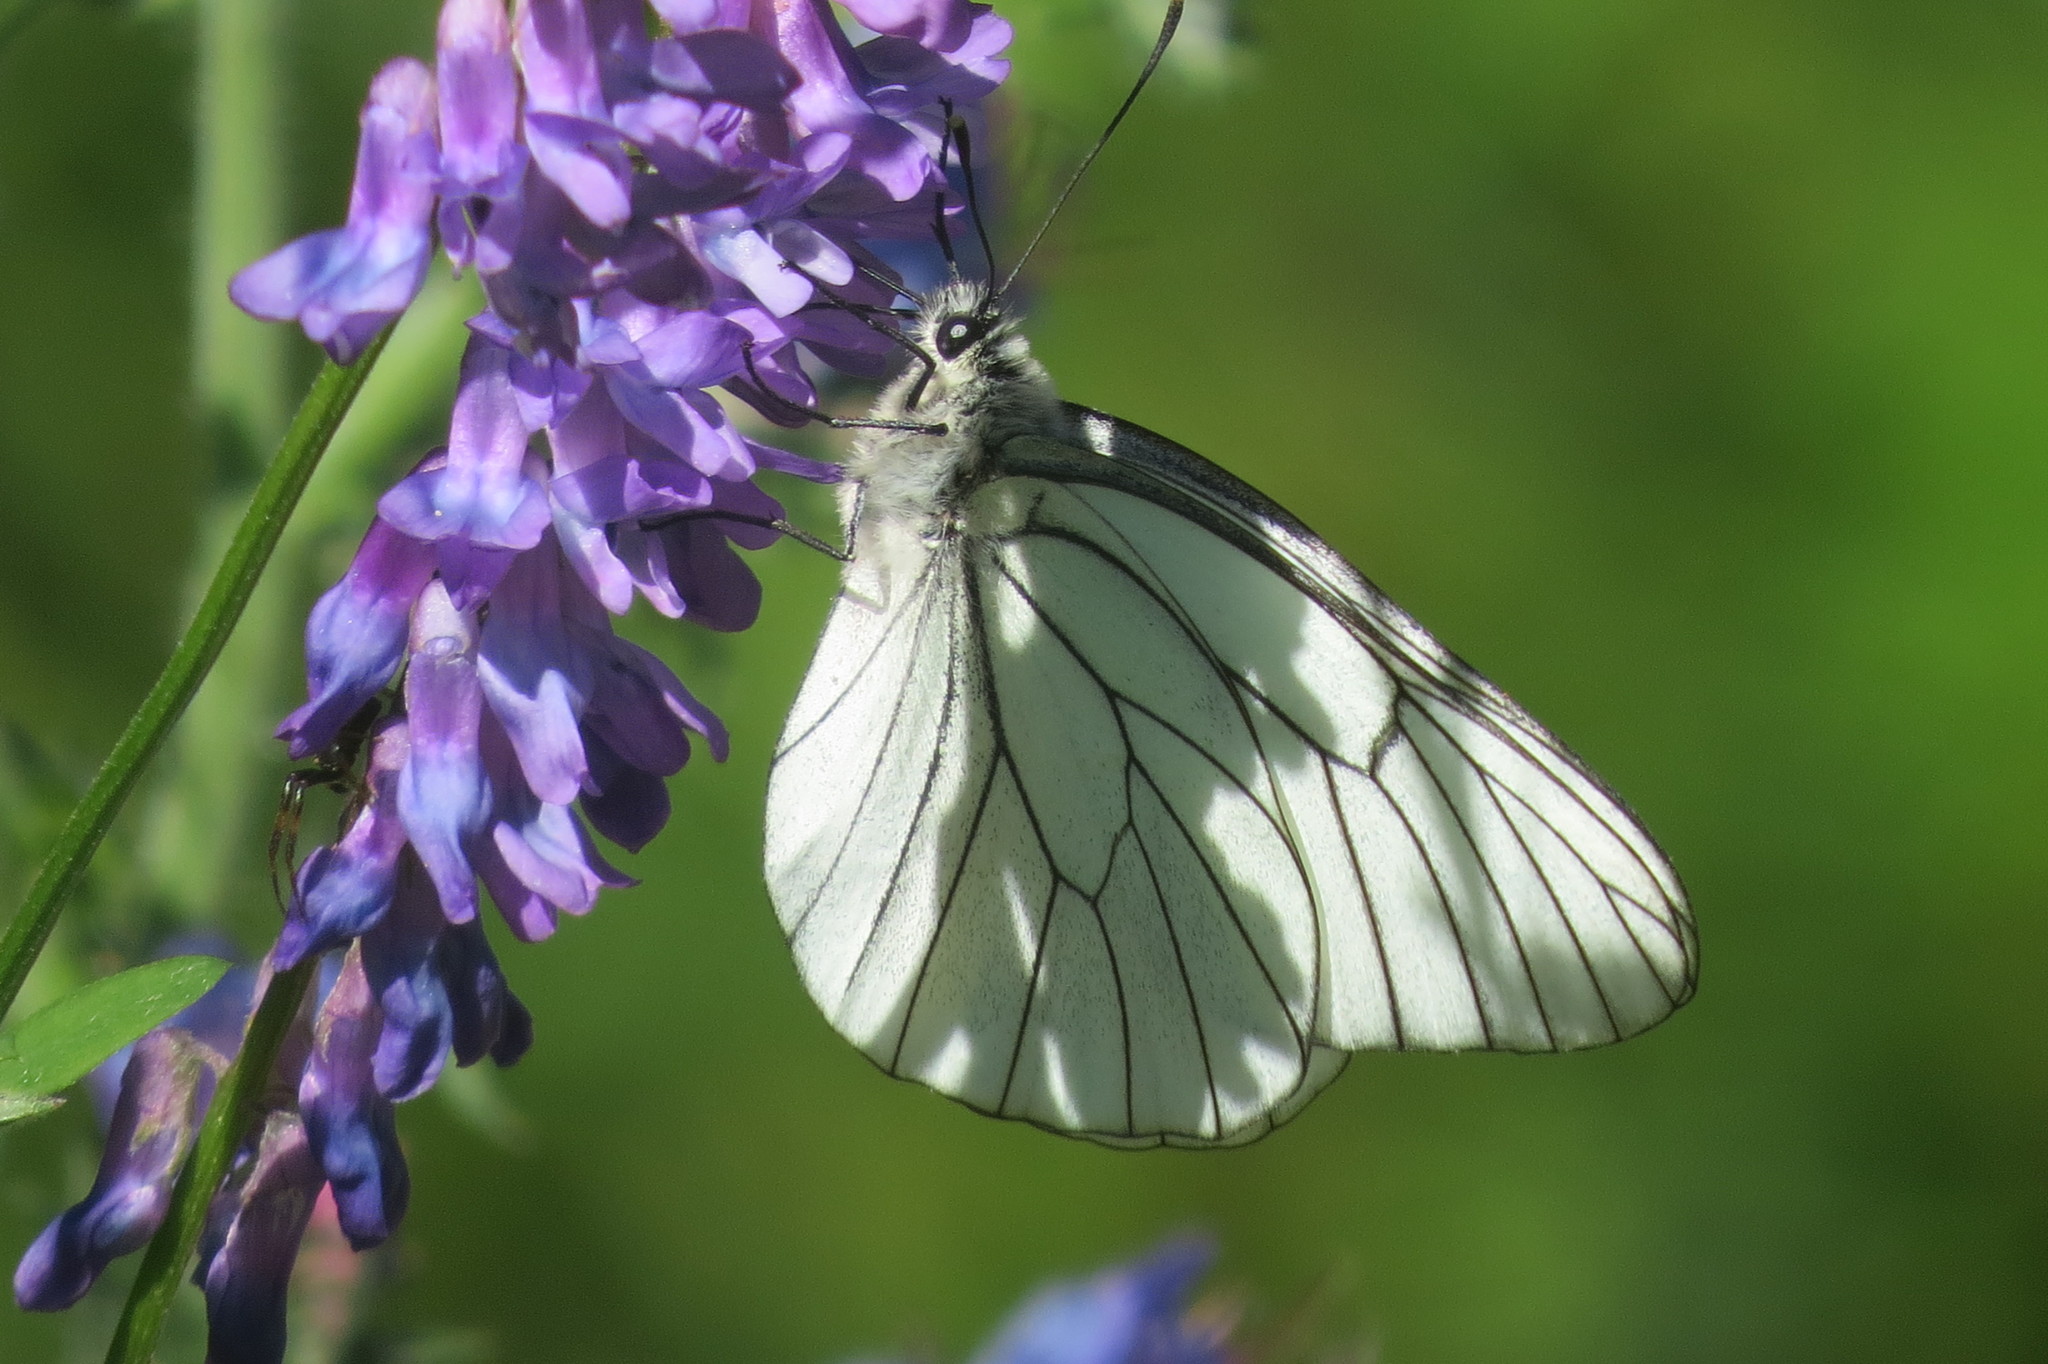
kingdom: Animalia
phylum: Arthropoda
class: Insecta
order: Lepidoptera
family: Pieridae
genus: Aporia
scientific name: Aporia crataegi
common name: Black-veined white
